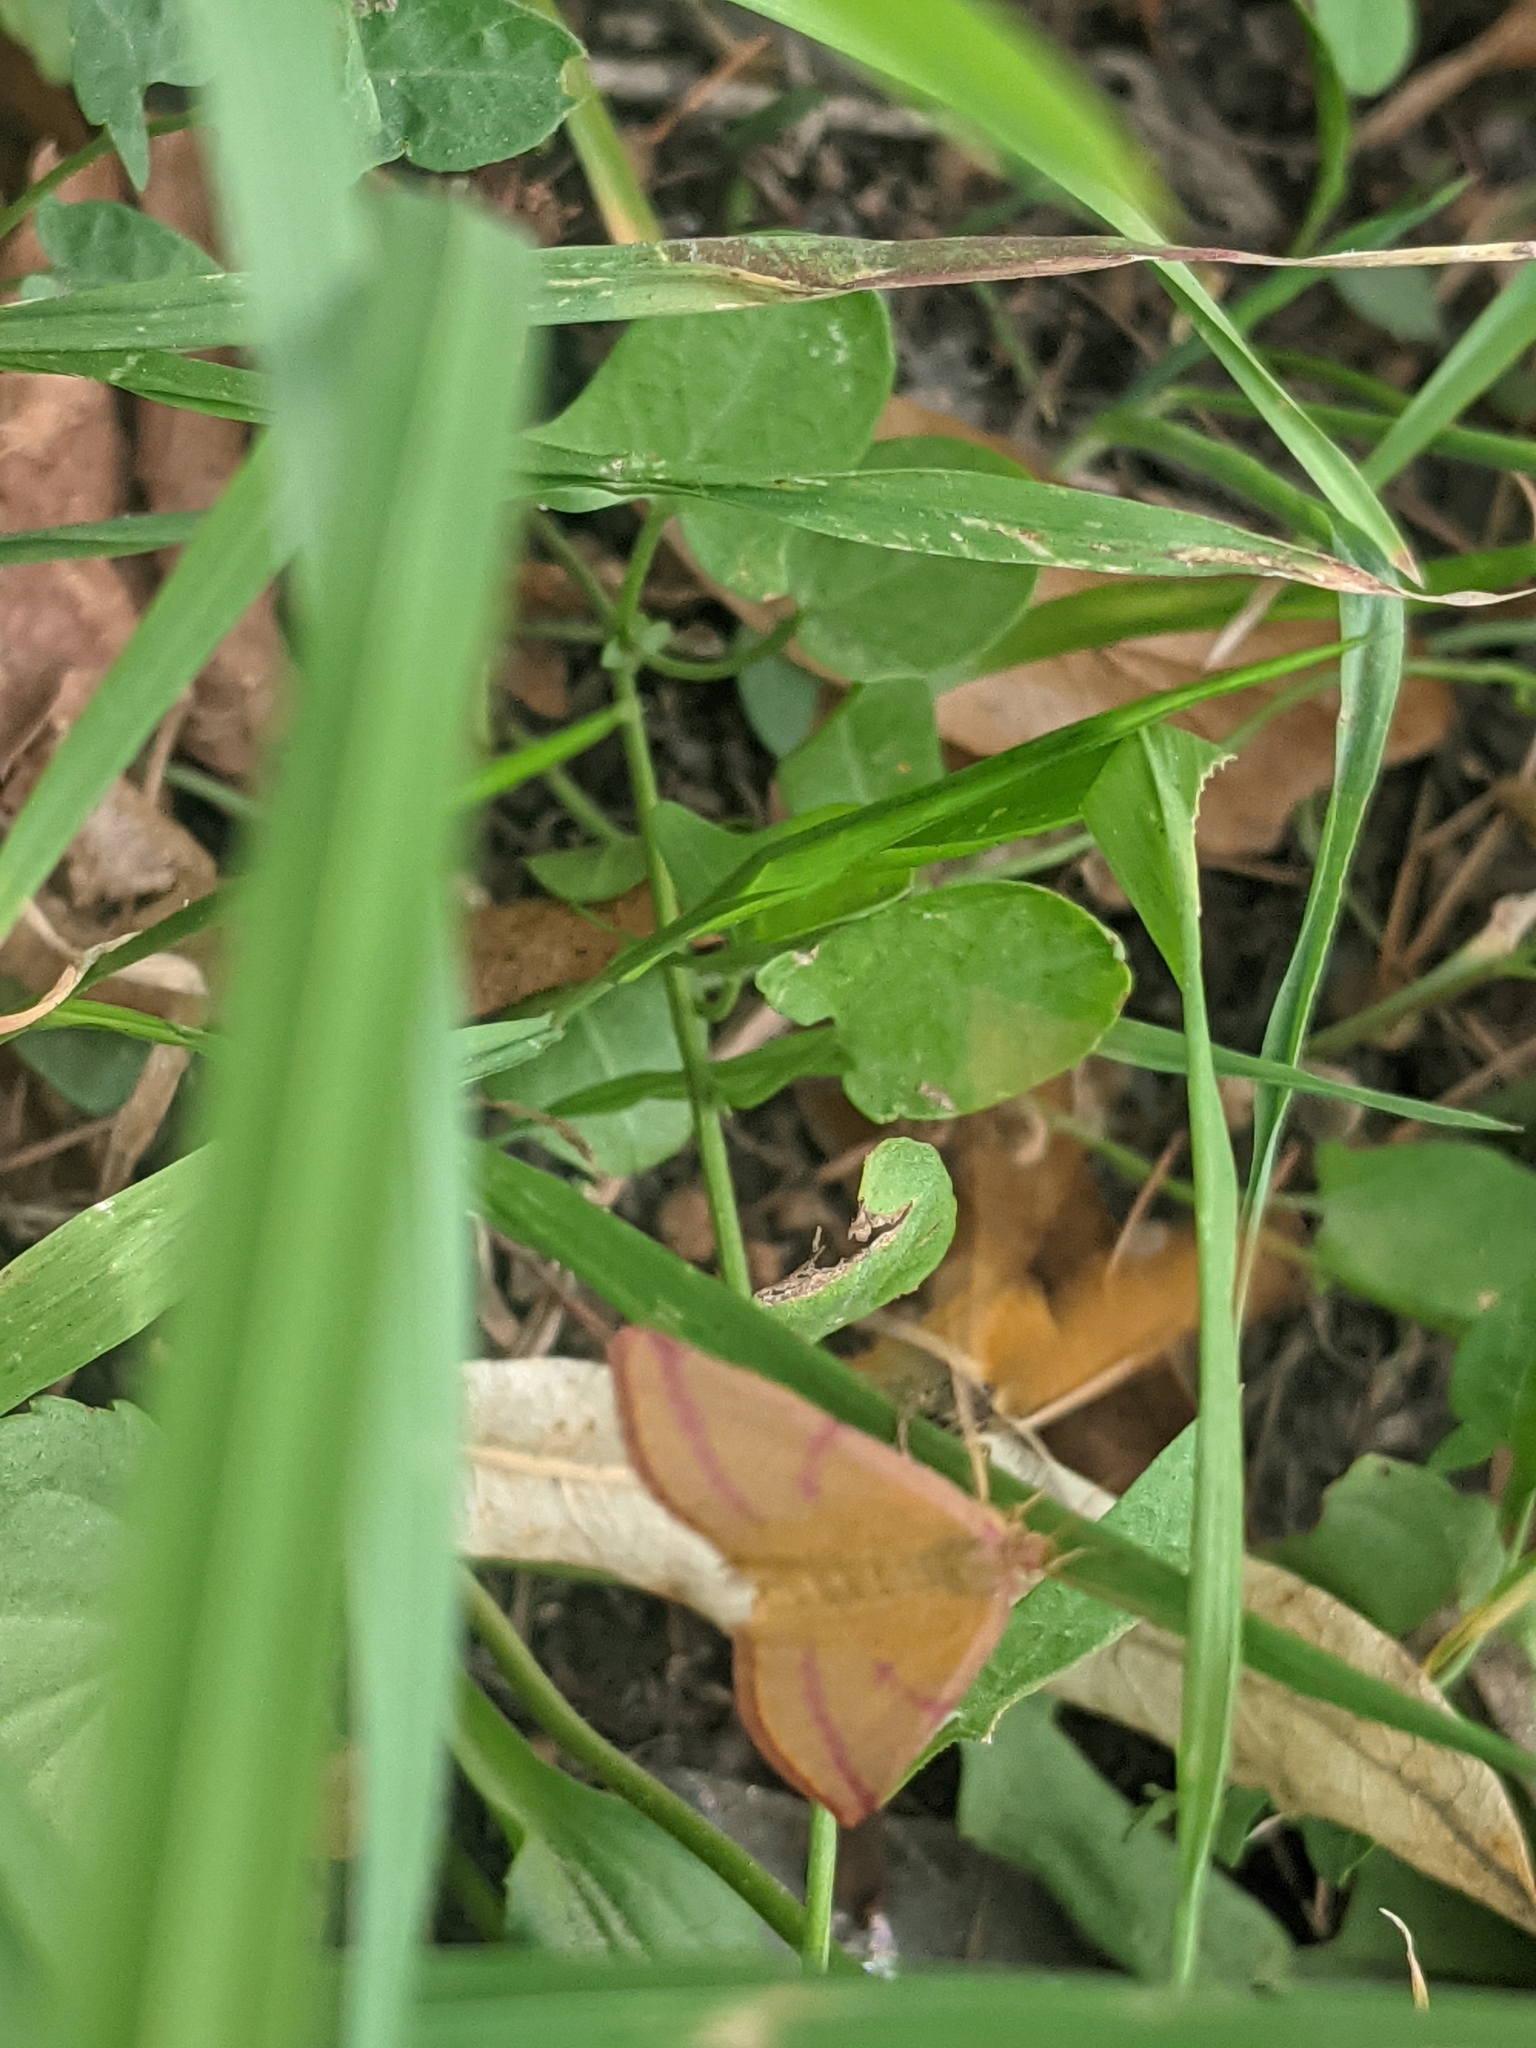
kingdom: Animalia
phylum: Arthropoda
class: Insecta
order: Lepidoptera
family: Geometridae
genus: Lythria
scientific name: Lythria purpuraria
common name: Purple-barred yellow
